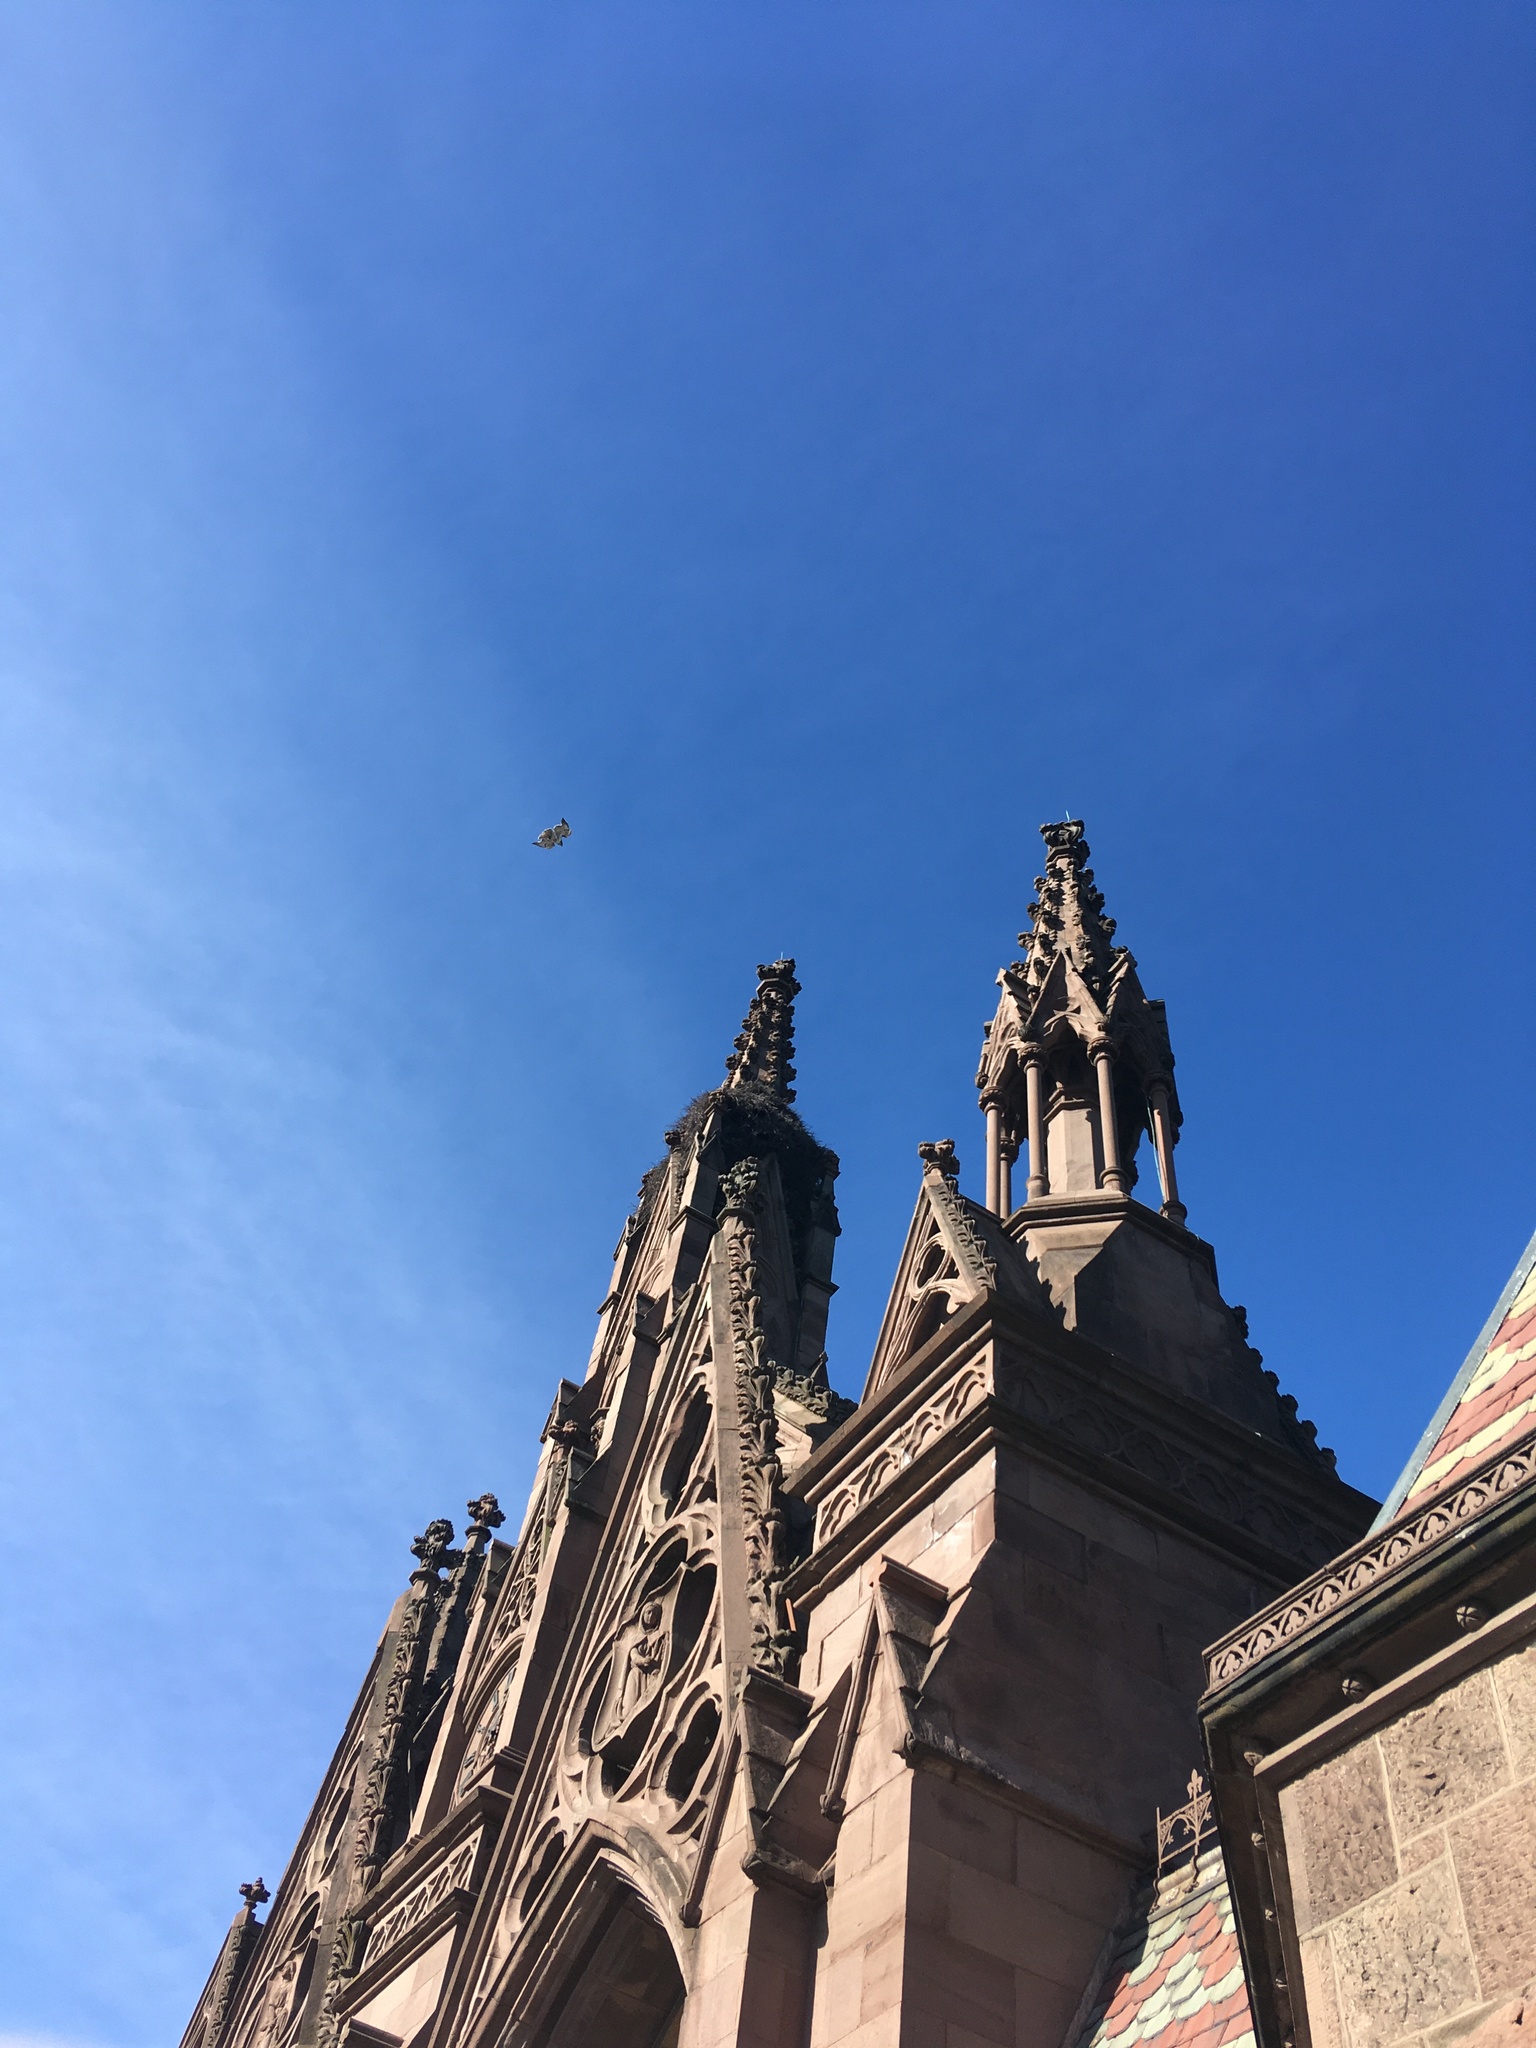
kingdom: Animalia
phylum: Chordata
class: Aves
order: Accipitriformes
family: Accipitridae
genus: Buteo
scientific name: Buteo jamaicensis
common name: Red-tailed hawk
